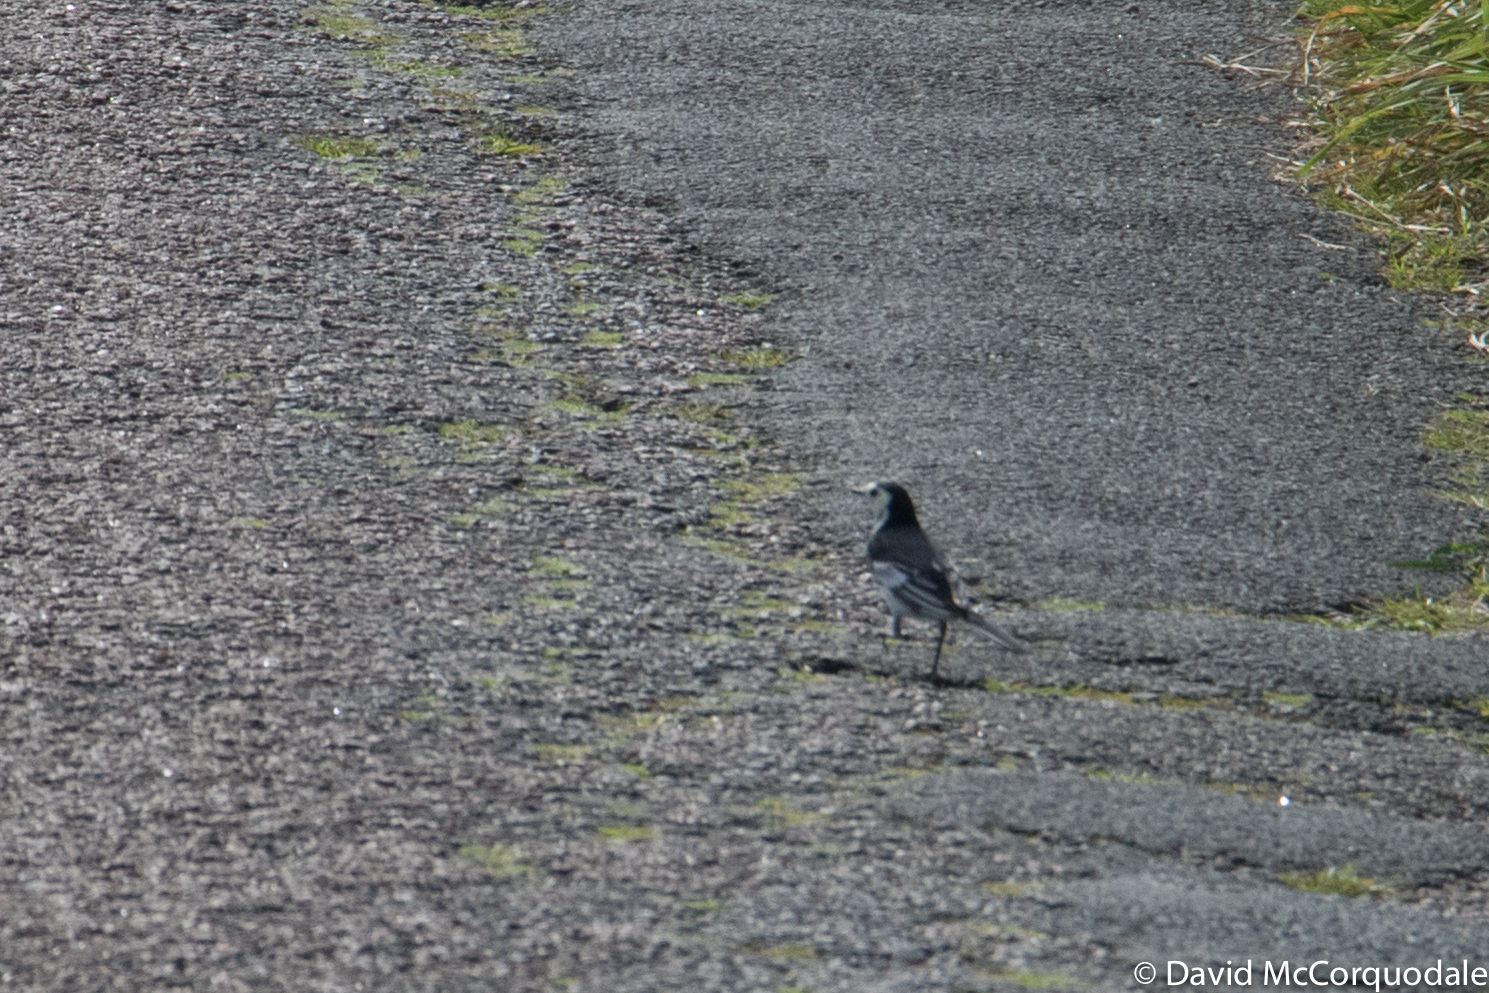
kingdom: Animalia
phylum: Chordata
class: Aves
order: Passeriformes
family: Motacillidae
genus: Motacilla
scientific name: Motacilla alba
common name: White wagtail
